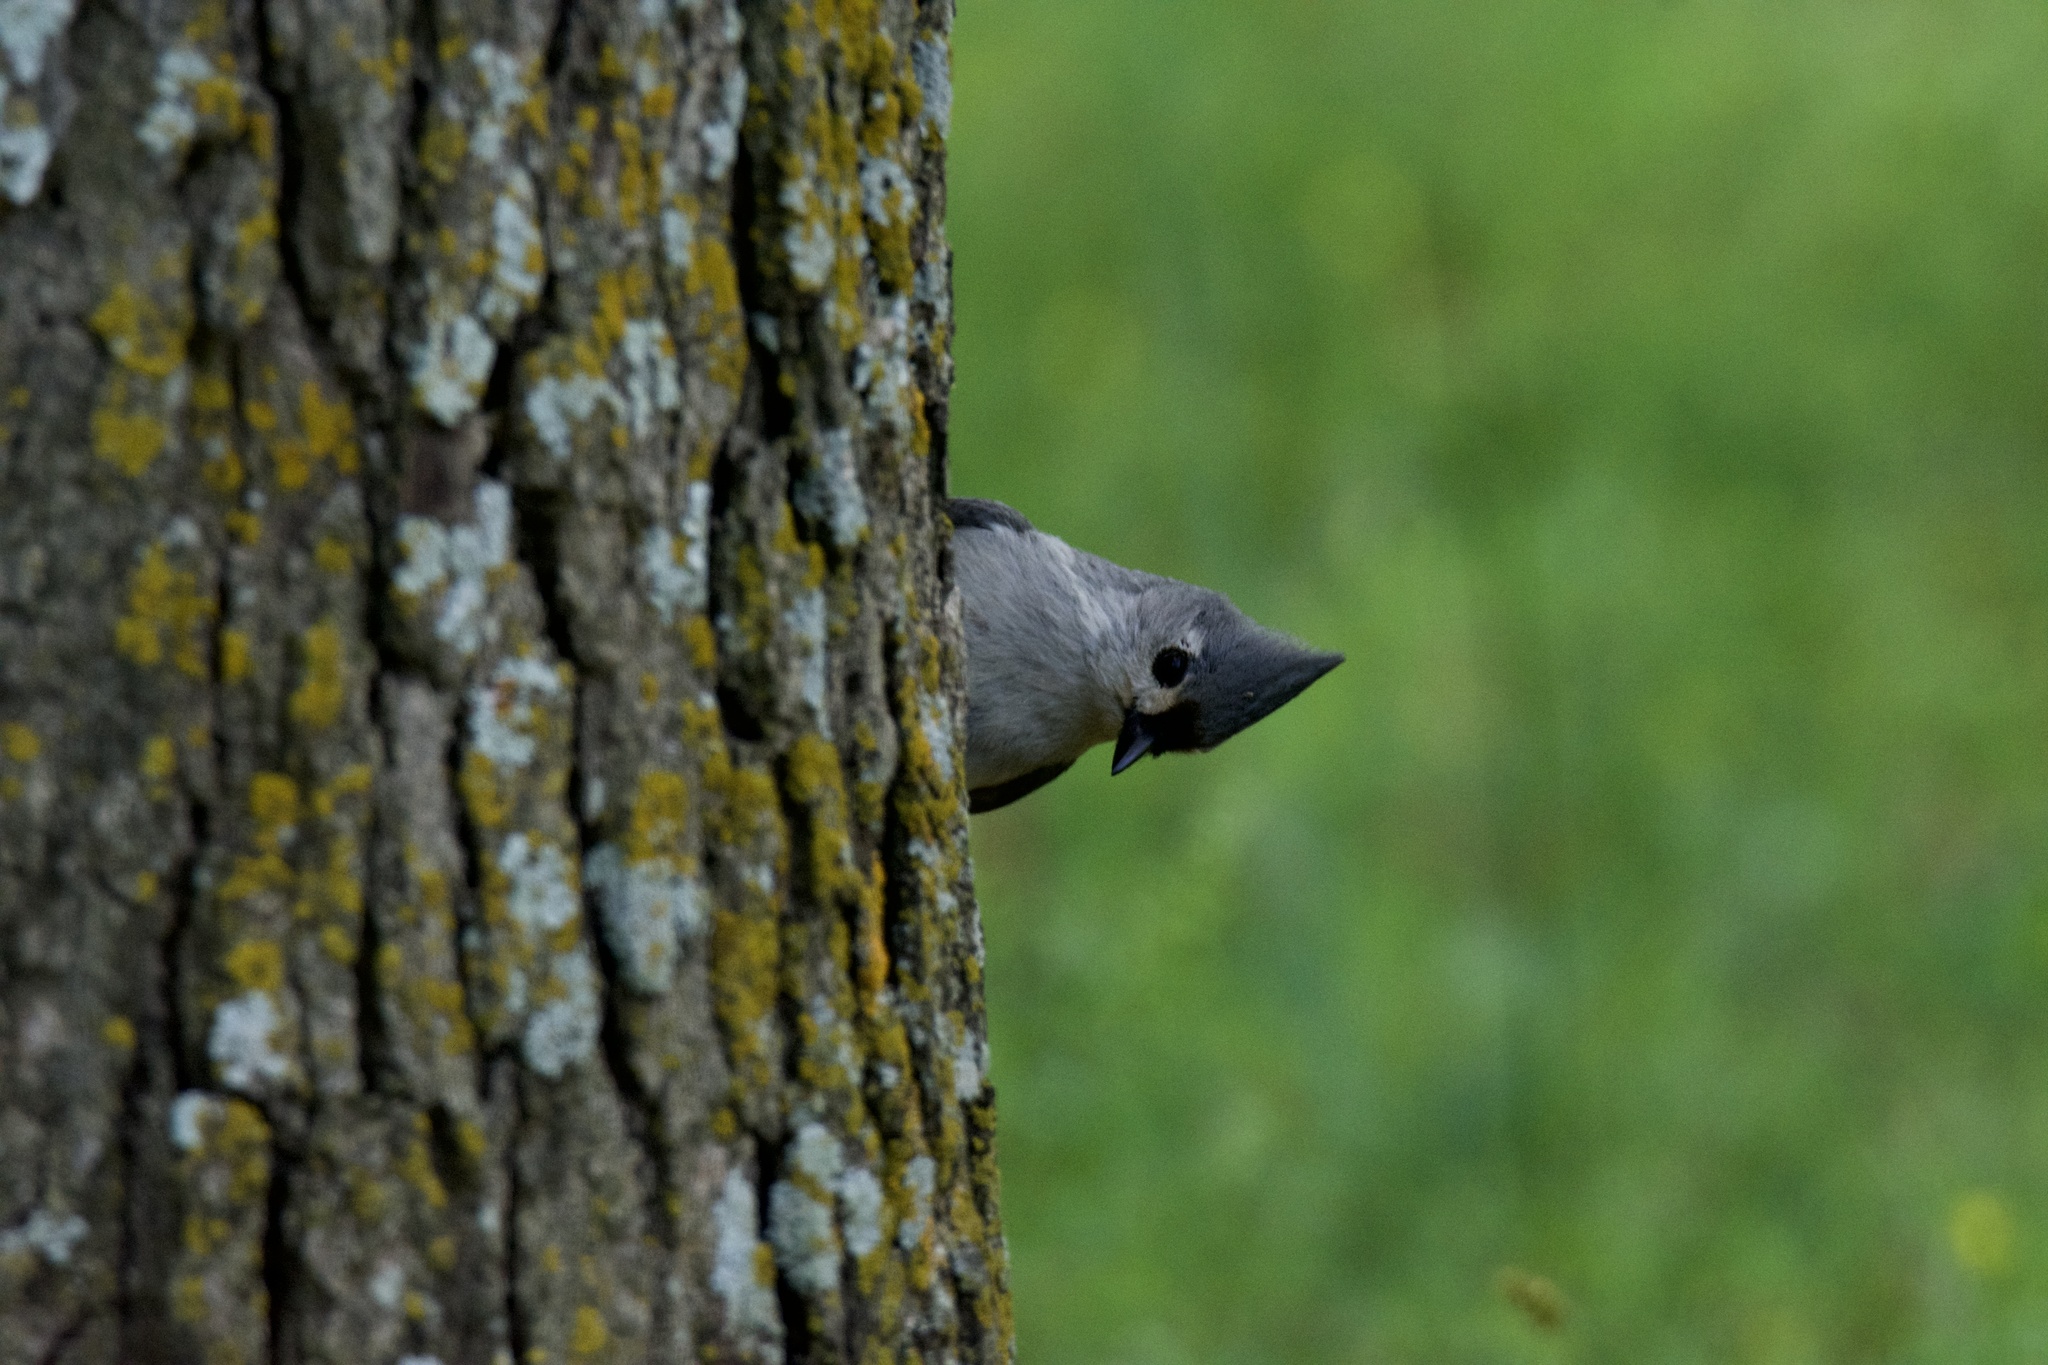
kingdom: Animalia
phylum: Chordata
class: Aves
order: Passeriformes
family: Paridae
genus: Baeolophus
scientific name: Baeolophus bicolor
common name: Tufted titmouse
